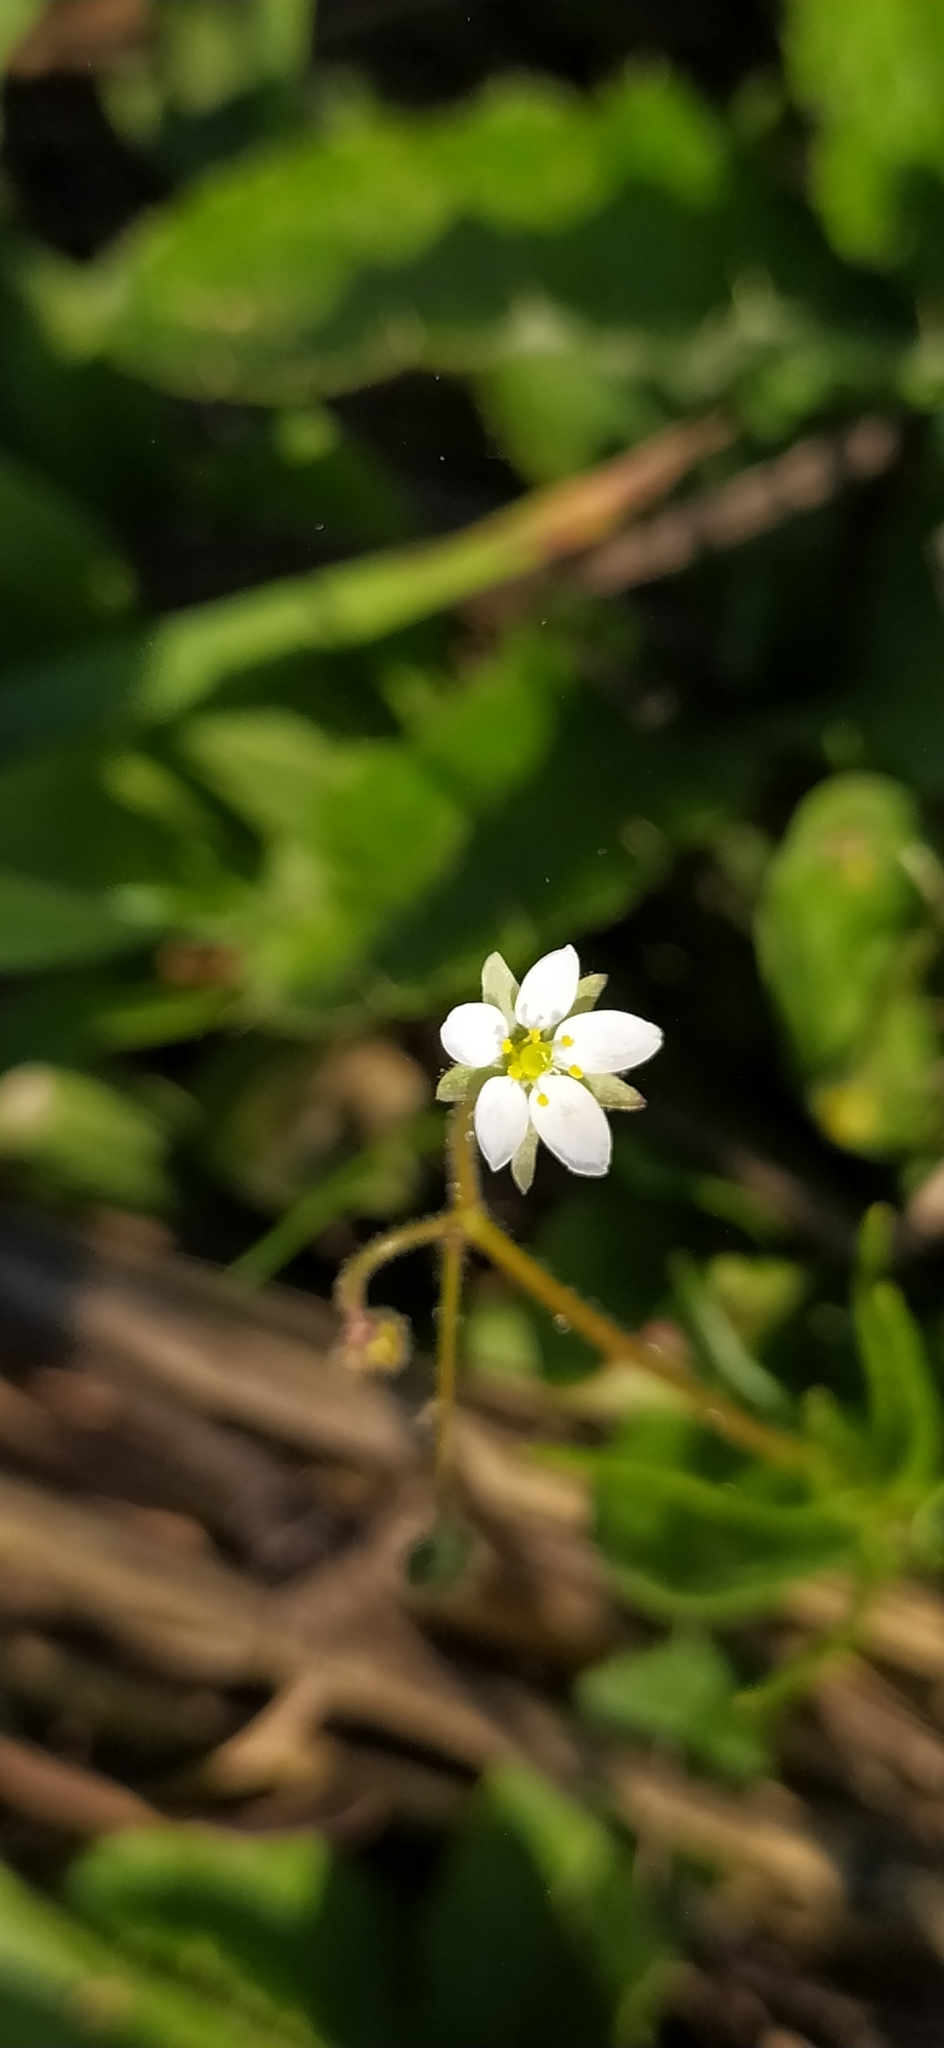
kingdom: Plantae
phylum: Tracheophyta
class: Magnoliopsida
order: Caryophyllales
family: Caryophyllaceae
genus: Spergula
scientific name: Spergula arvensis
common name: Corn spurrey
